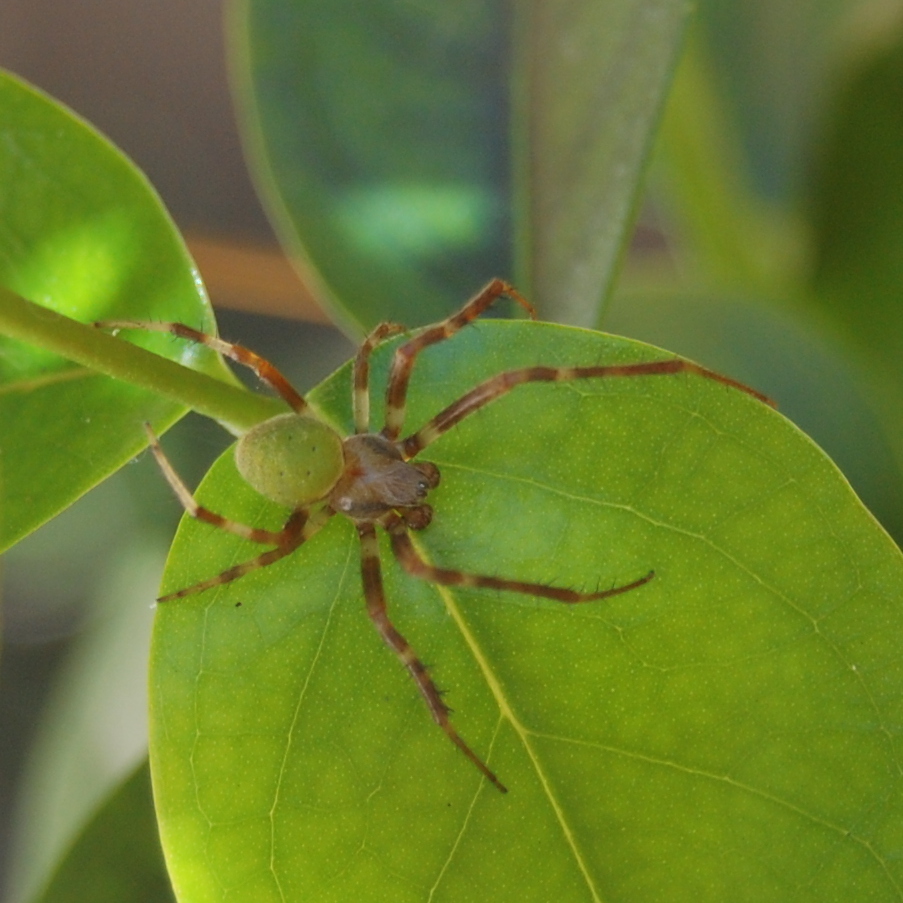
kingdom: Animalia
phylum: Arthropoda
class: Arachnida
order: Araneae
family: Araneidae
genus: Araneus
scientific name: Araneus lathyrinus
